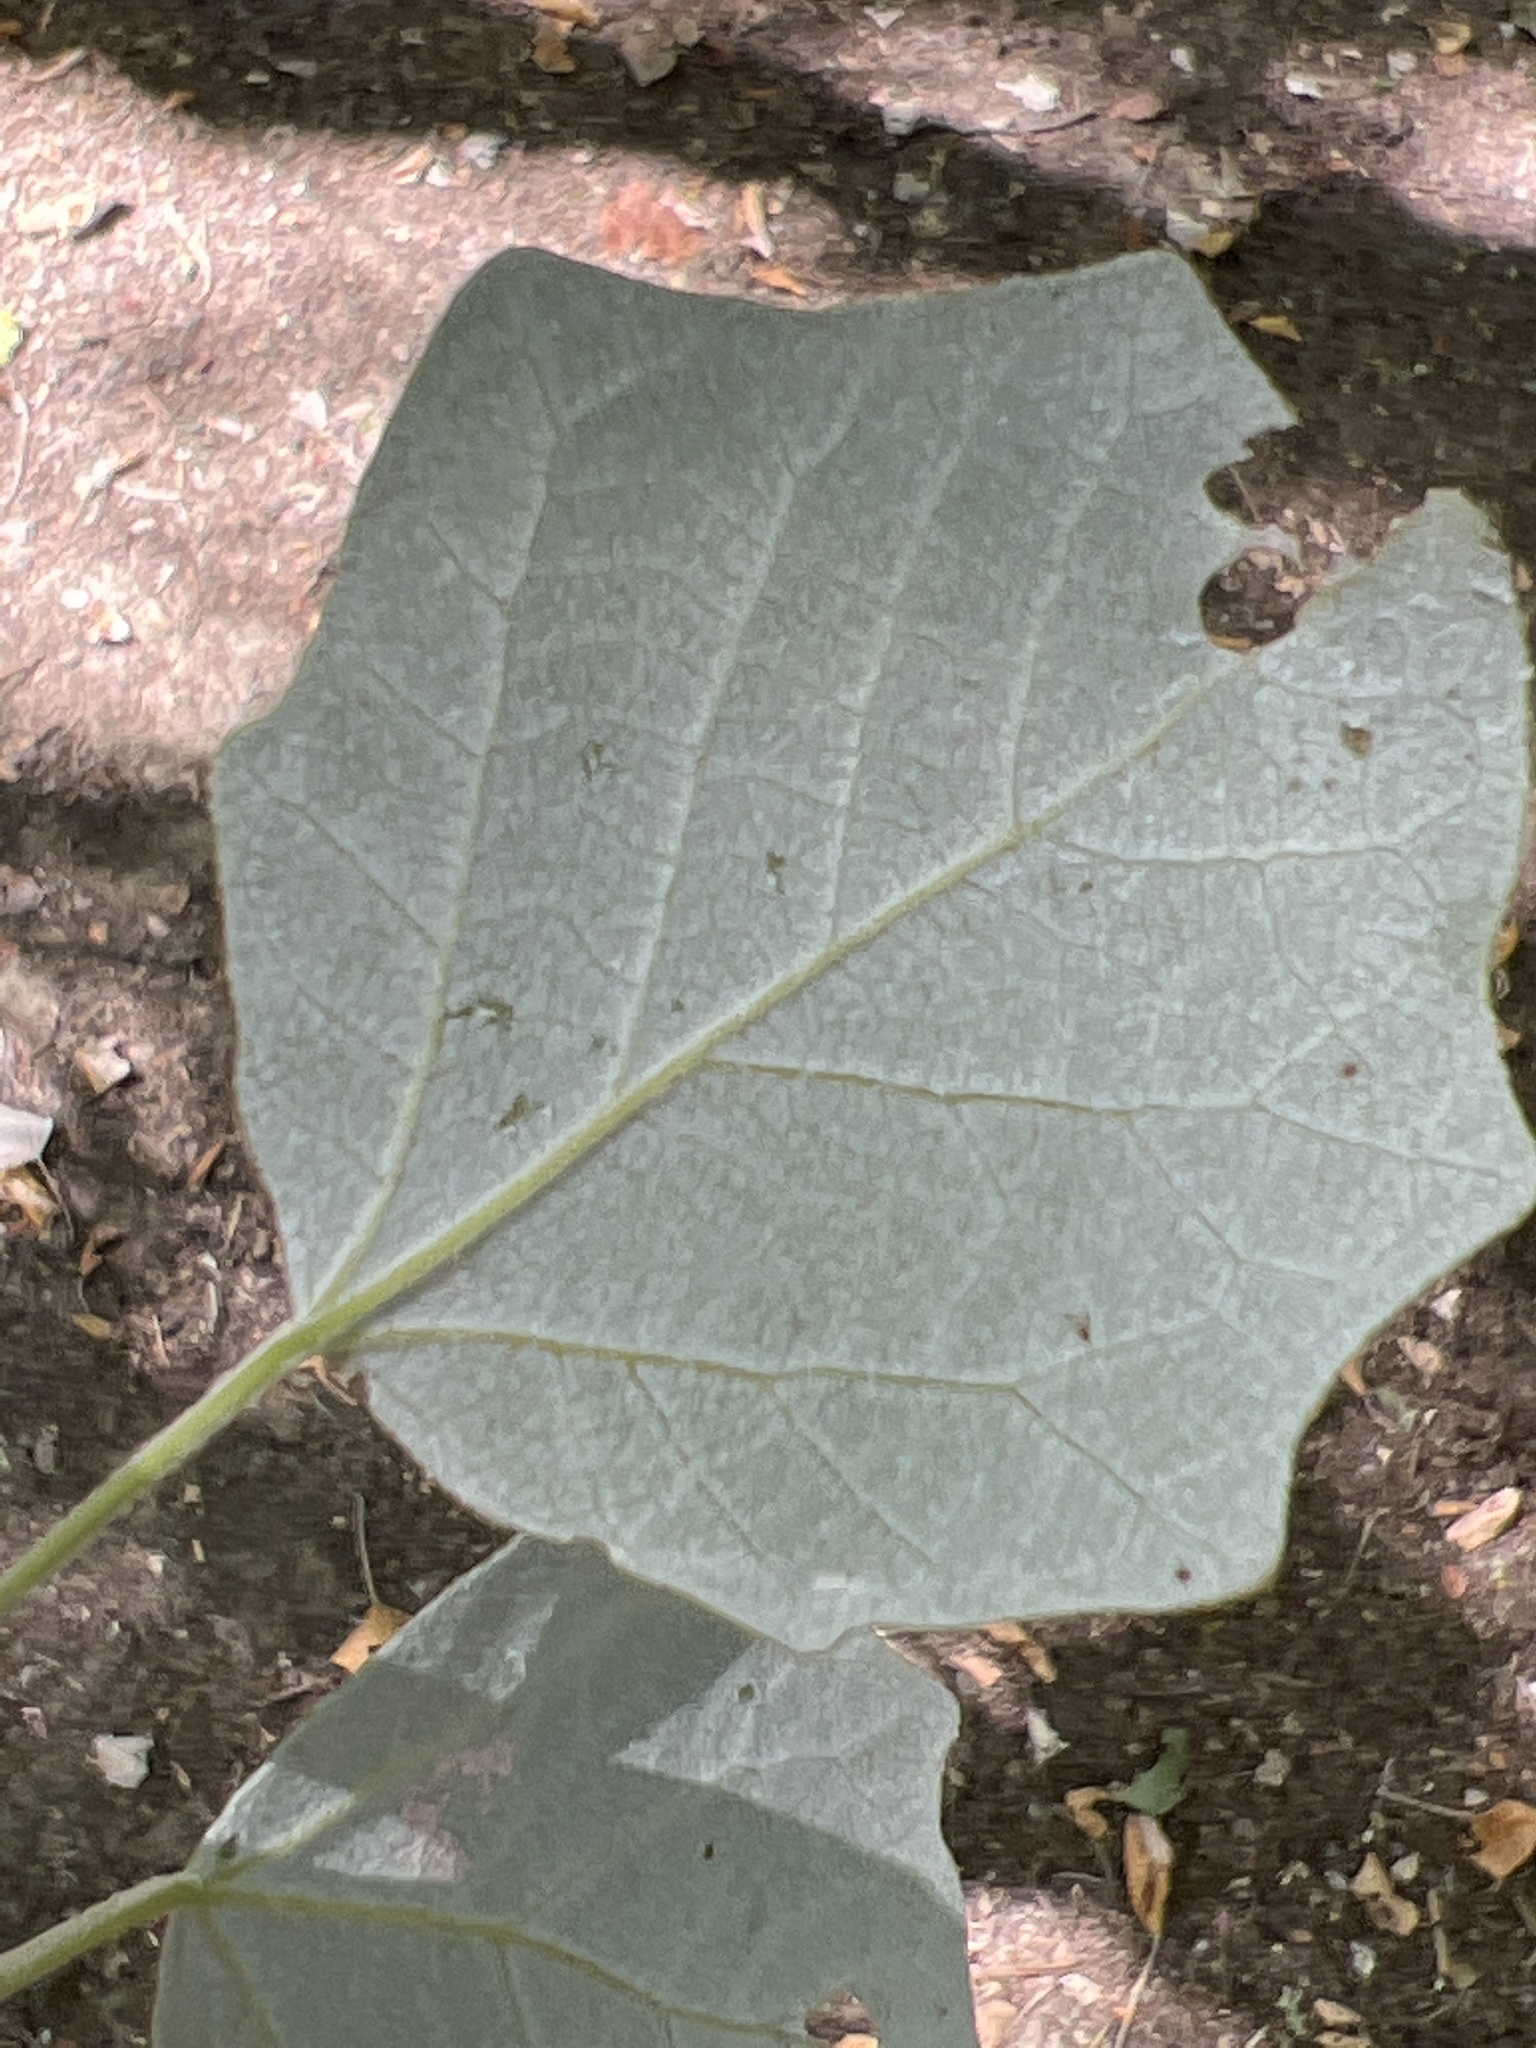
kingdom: Plantae
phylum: Tracheophyta
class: Magnoliopsida
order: Malpighiales
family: Salicaceae
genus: Populus
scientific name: Populus alba
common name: White poplar
